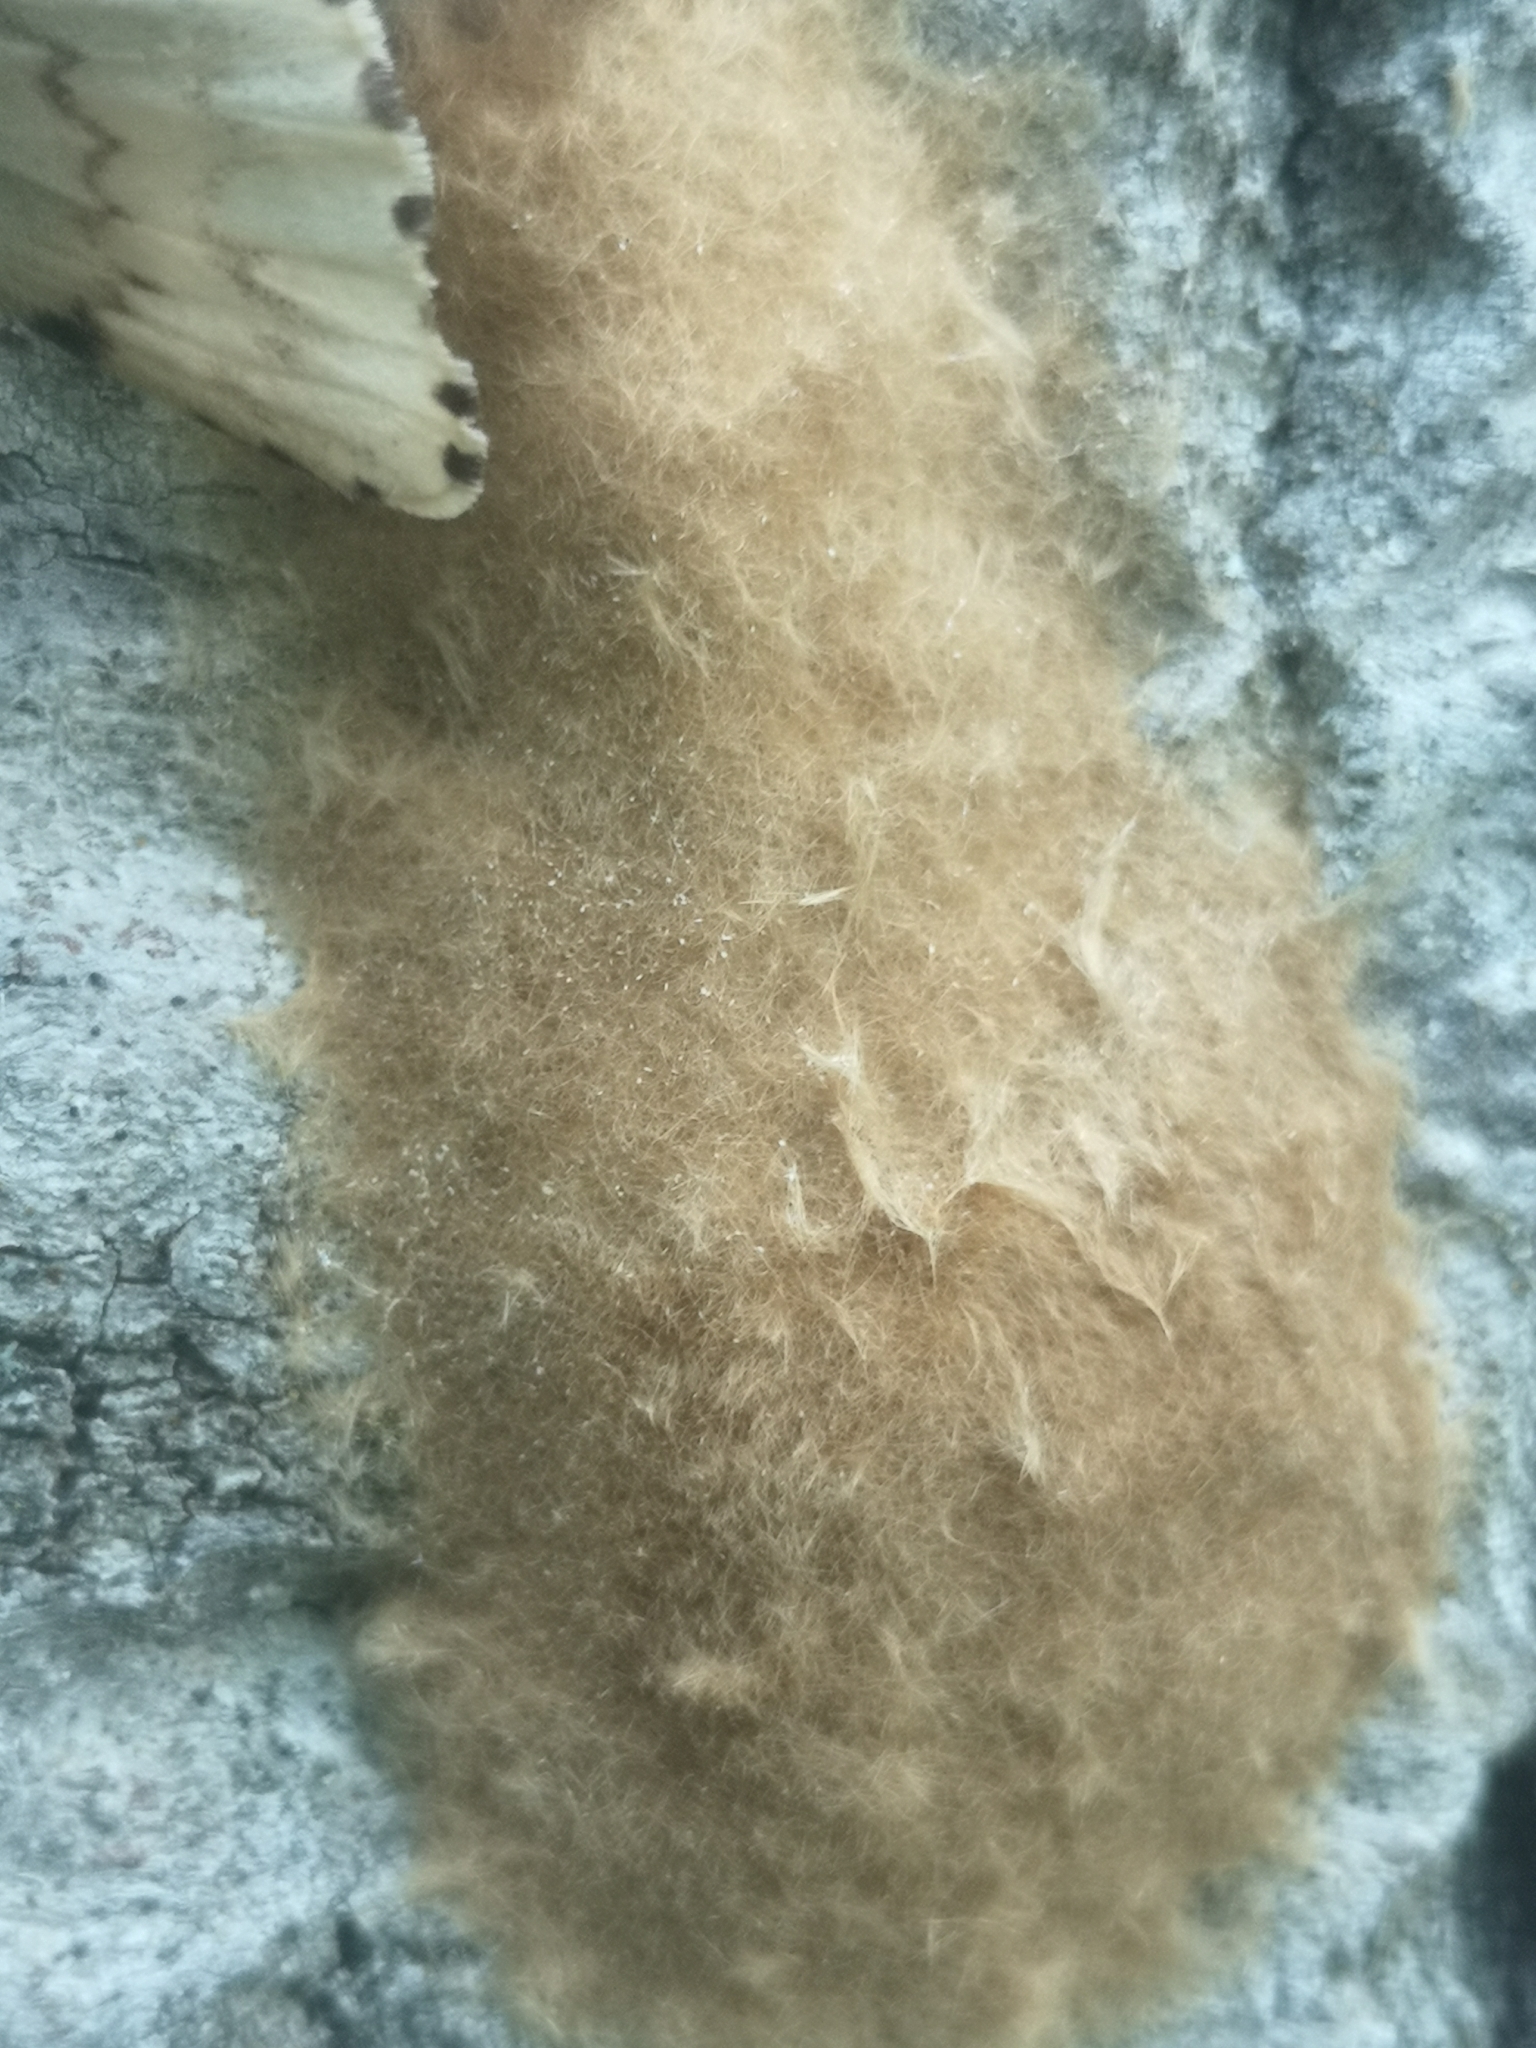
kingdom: Animalia
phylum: Arthropoda
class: Insecta
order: Lepidoptera
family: Erebidae
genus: Lymantria
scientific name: Lymantria dispar
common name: Gypsy moth
